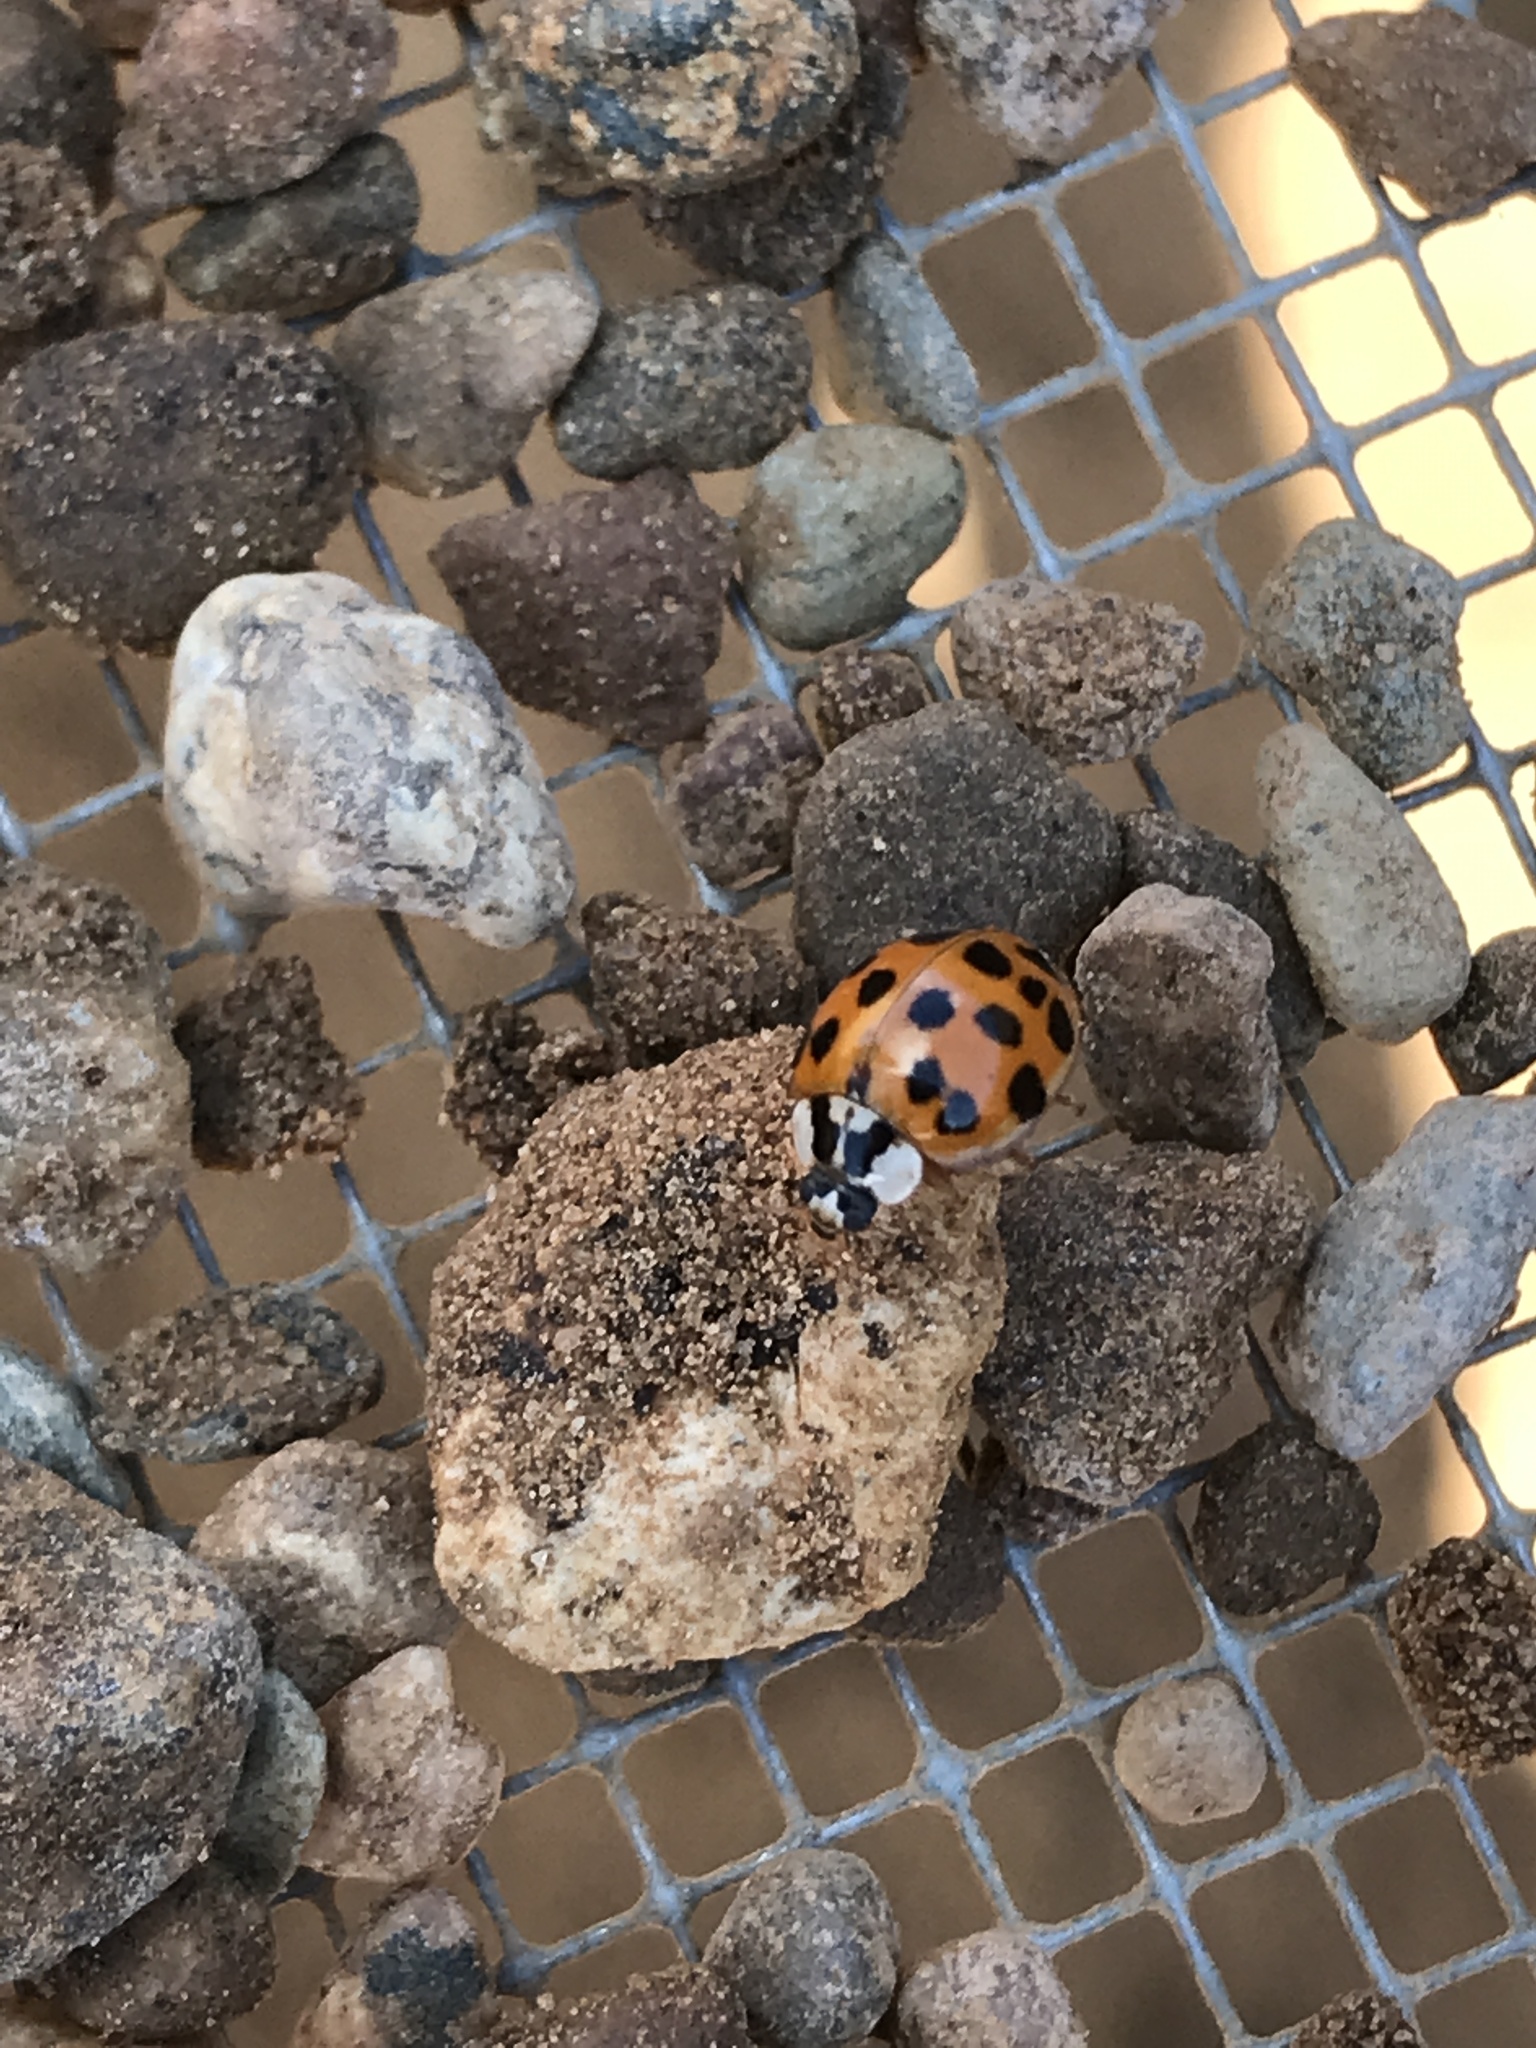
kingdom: Animalia
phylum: Arthropoda
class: Insecta
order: Coleoptera
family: Coccinellidae
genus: Harmonia
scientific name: Harmonia axyridis
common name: Harlequin ladybird
